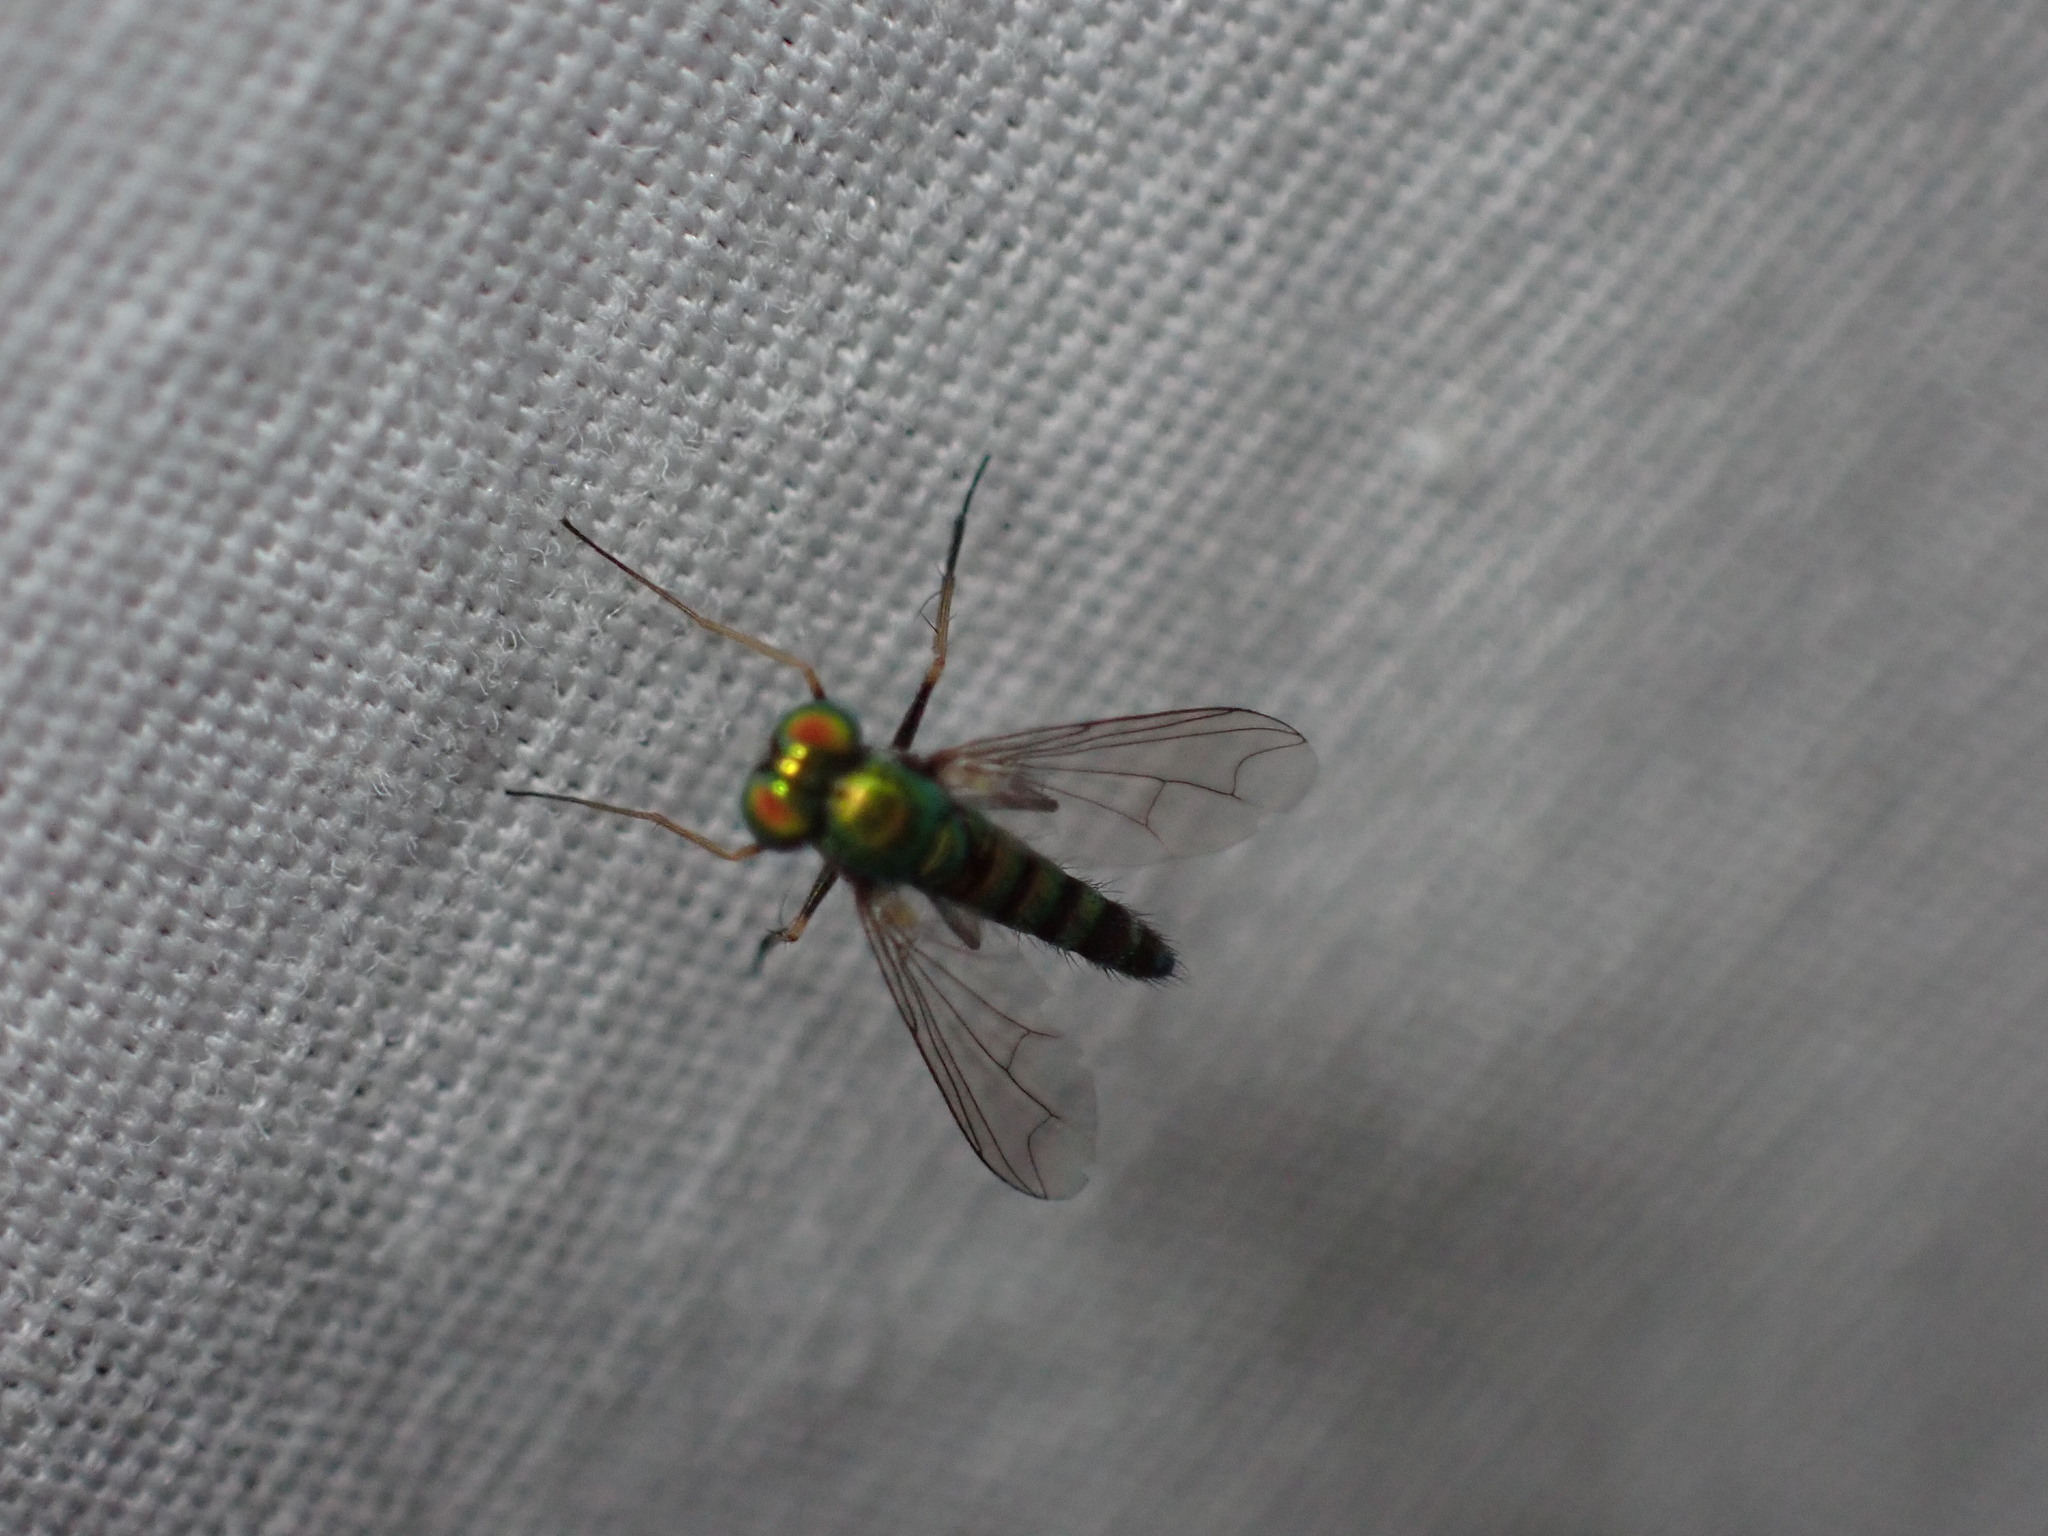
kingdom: Animalia
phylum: Arthropoda
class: Insecta
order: Diptera
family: Dolichopodidae
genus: Condylostylus
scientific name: Condylostylus caudatus
